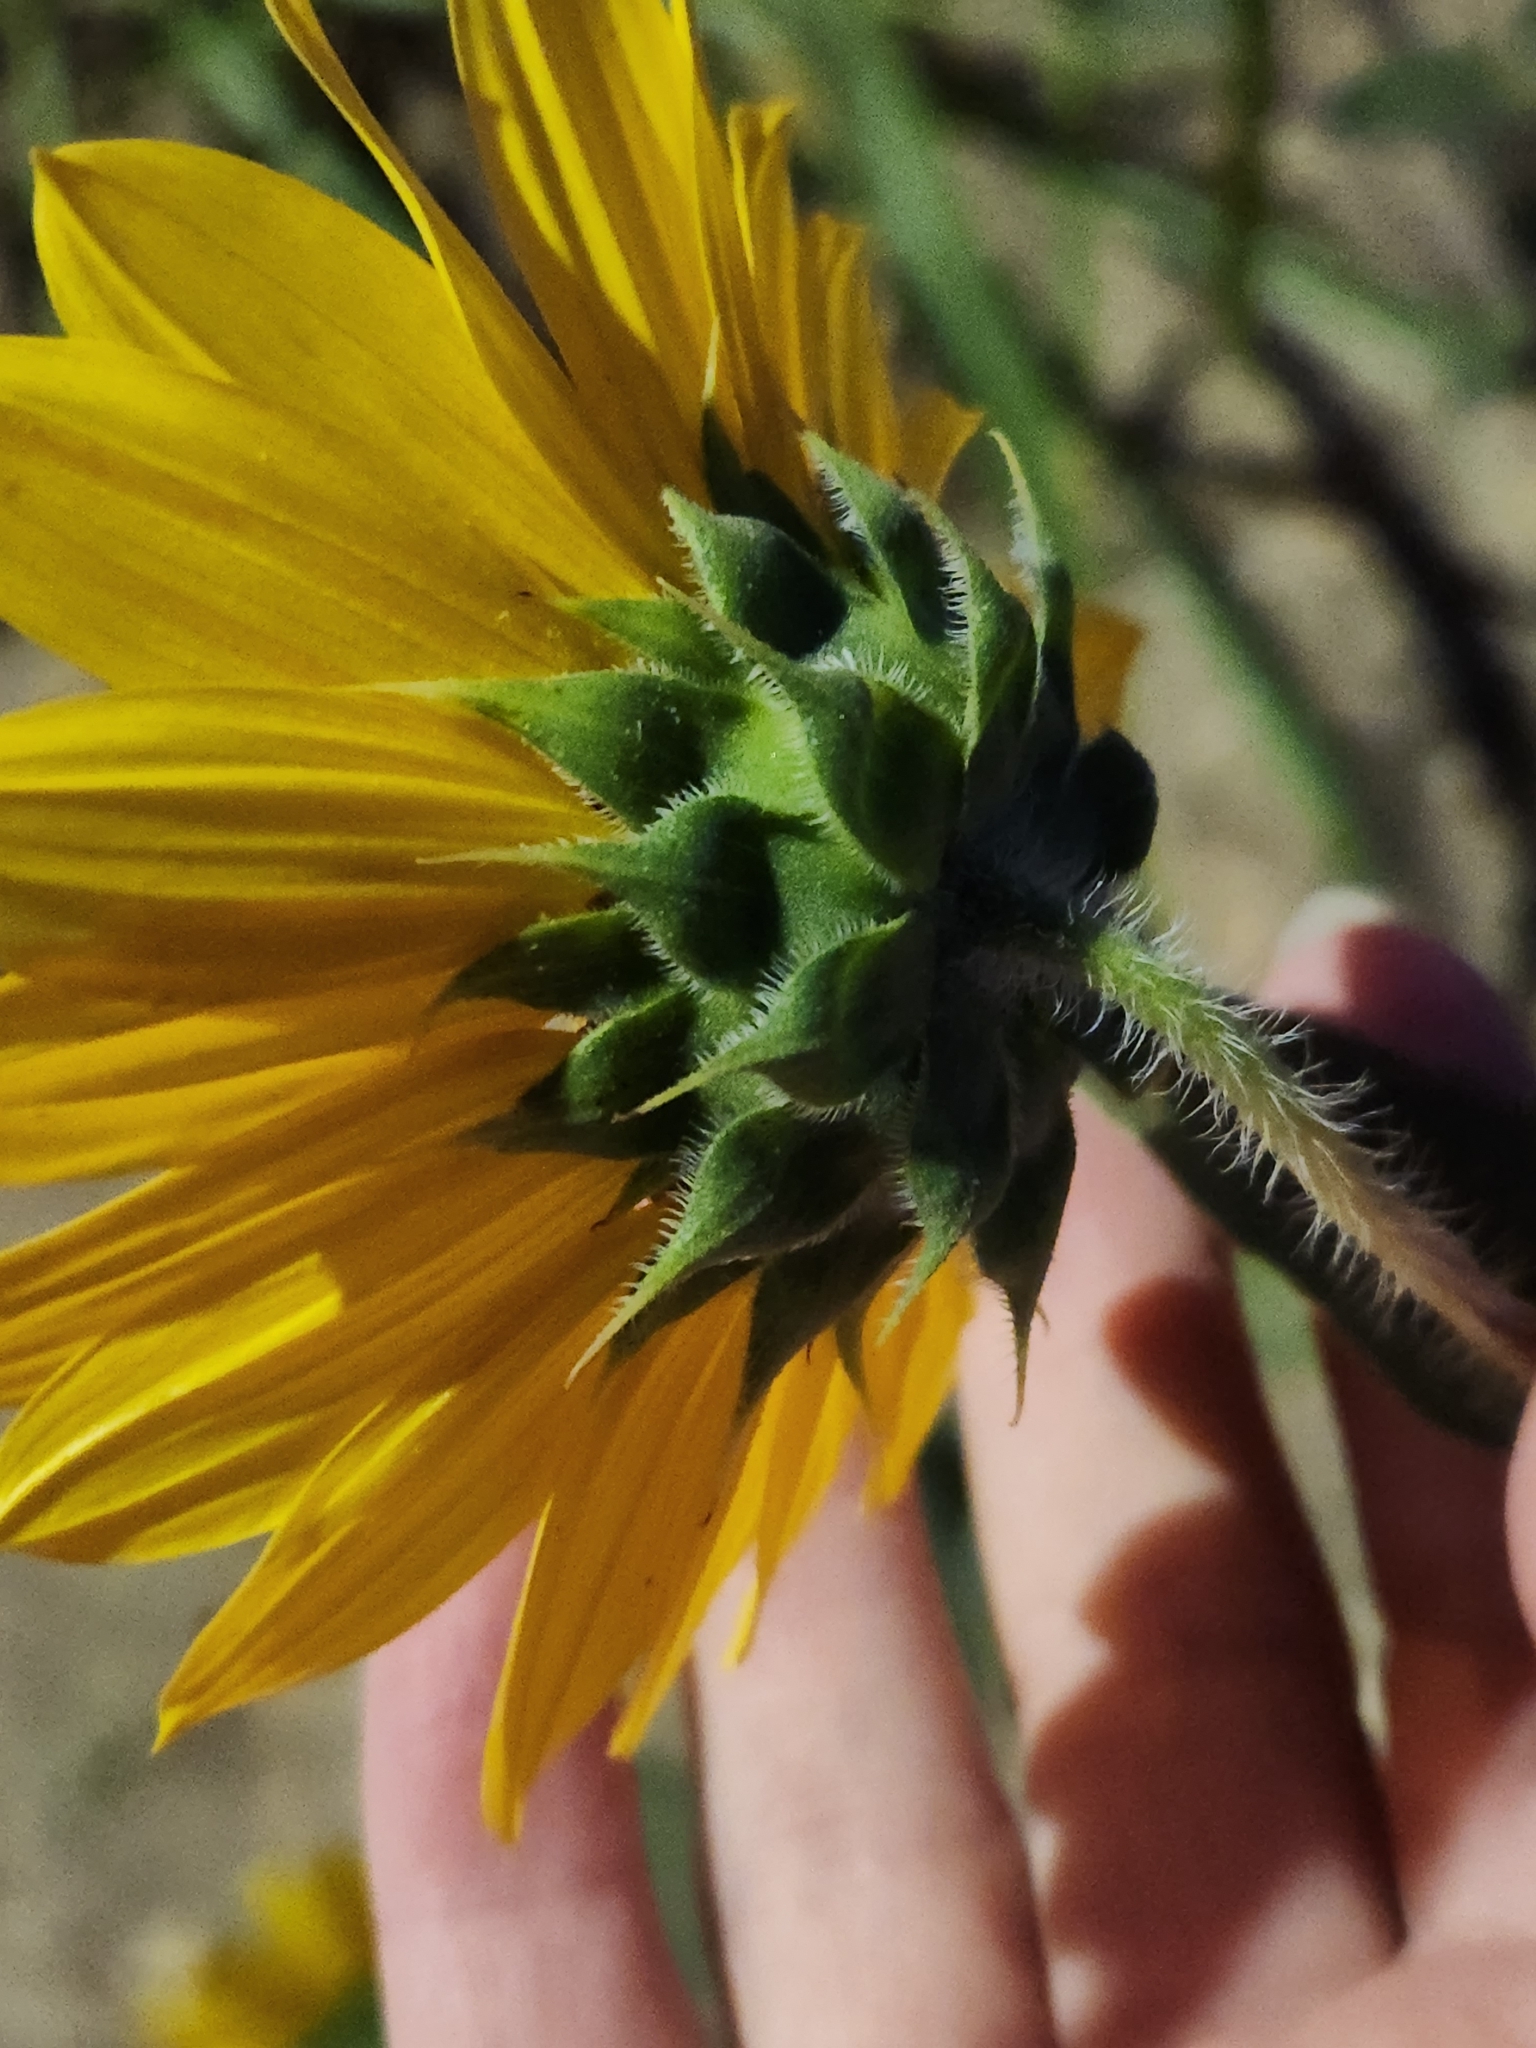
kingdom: Plantae
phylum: Tracheophyta
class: Magnoliopsida
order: Asterales
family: Asteraceae
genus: Helianthus
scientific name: Helianthus annuus
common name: Sunflower
